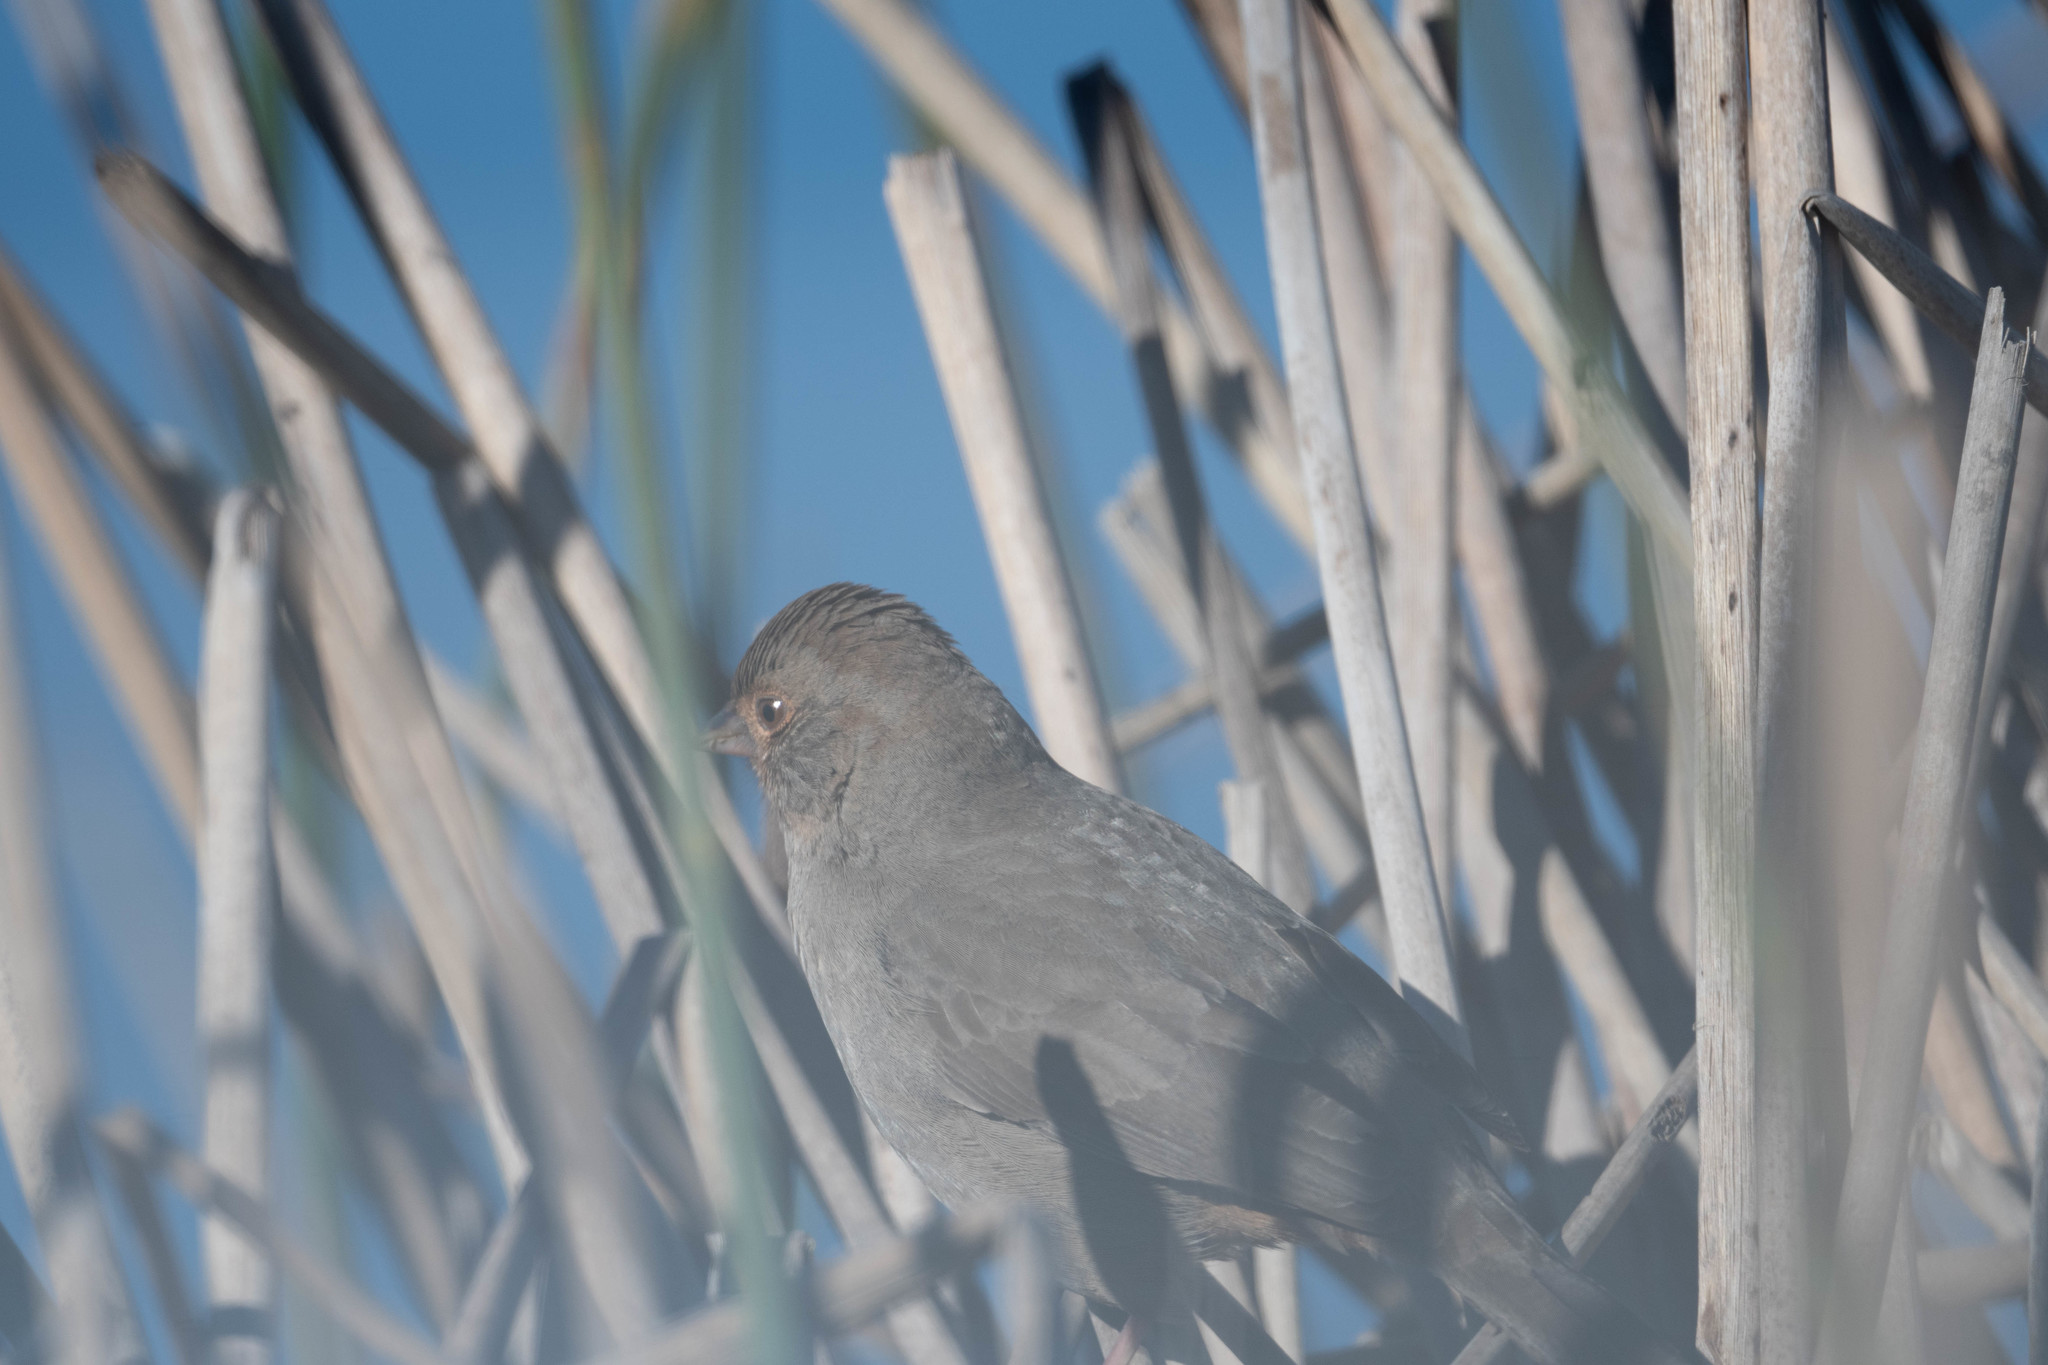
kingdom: Animalia
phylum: Chordata
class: Aves
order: Passeriformes
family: Passerellidae
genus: Melozone
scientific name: Melozone crissalis
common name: California towhee
